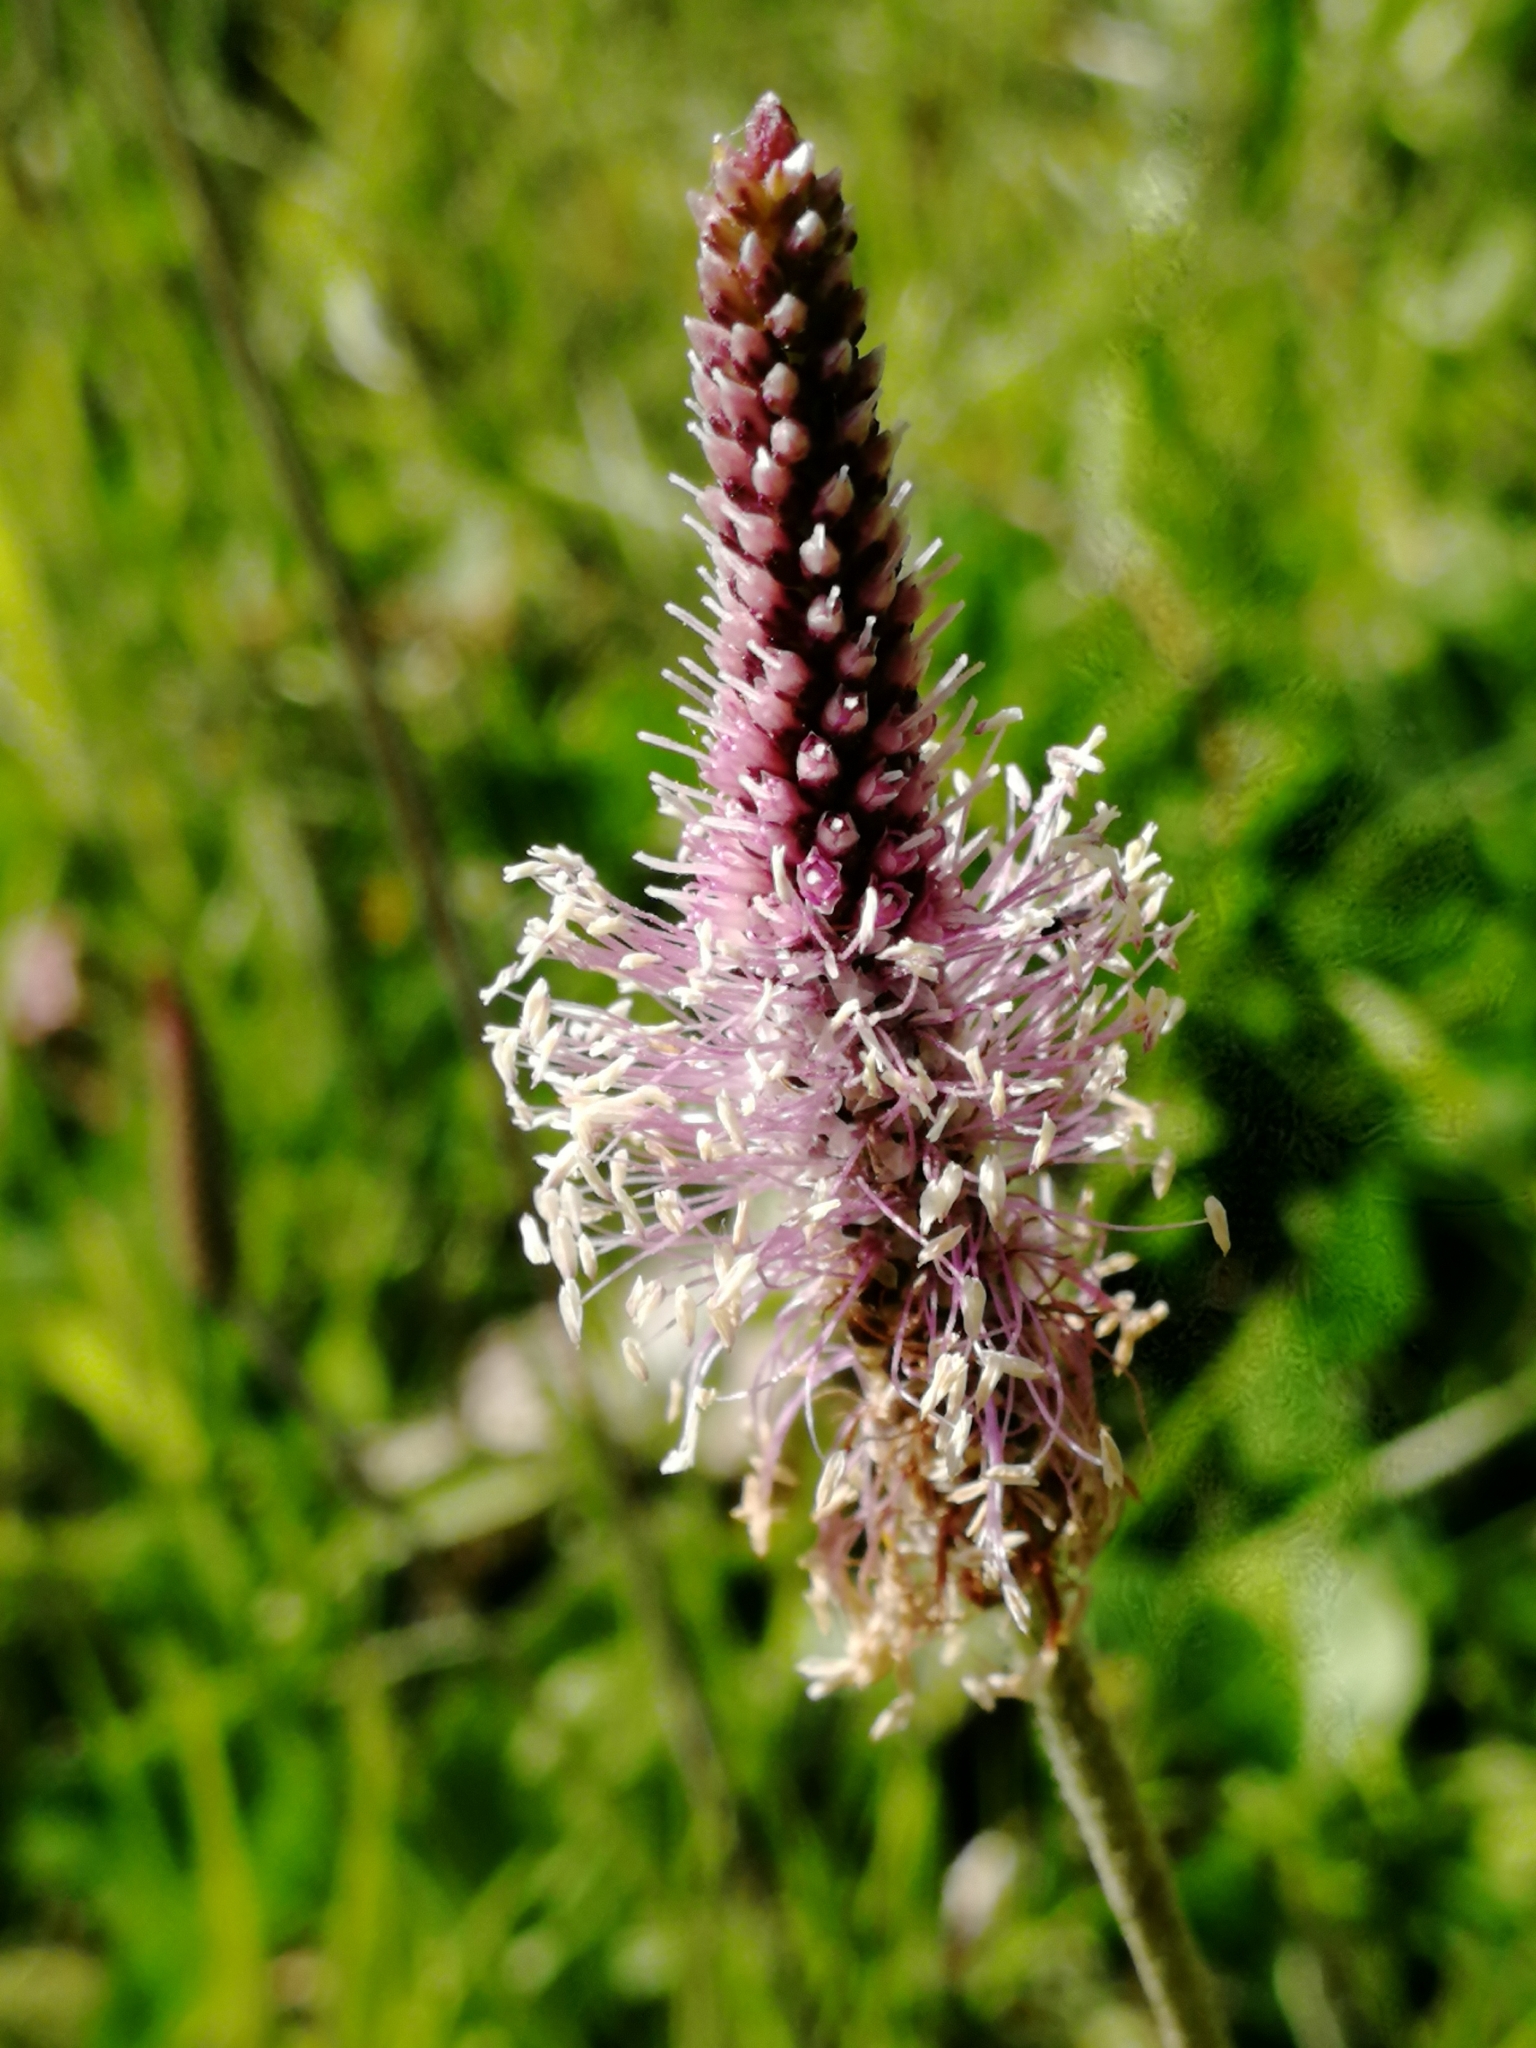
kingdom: Plantae
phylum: Tracheophyta
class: Magnoliopsida
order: Lamiales
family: Plantaginaceae
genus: Plantago
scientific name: Plantago media
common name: Hoary plantain
